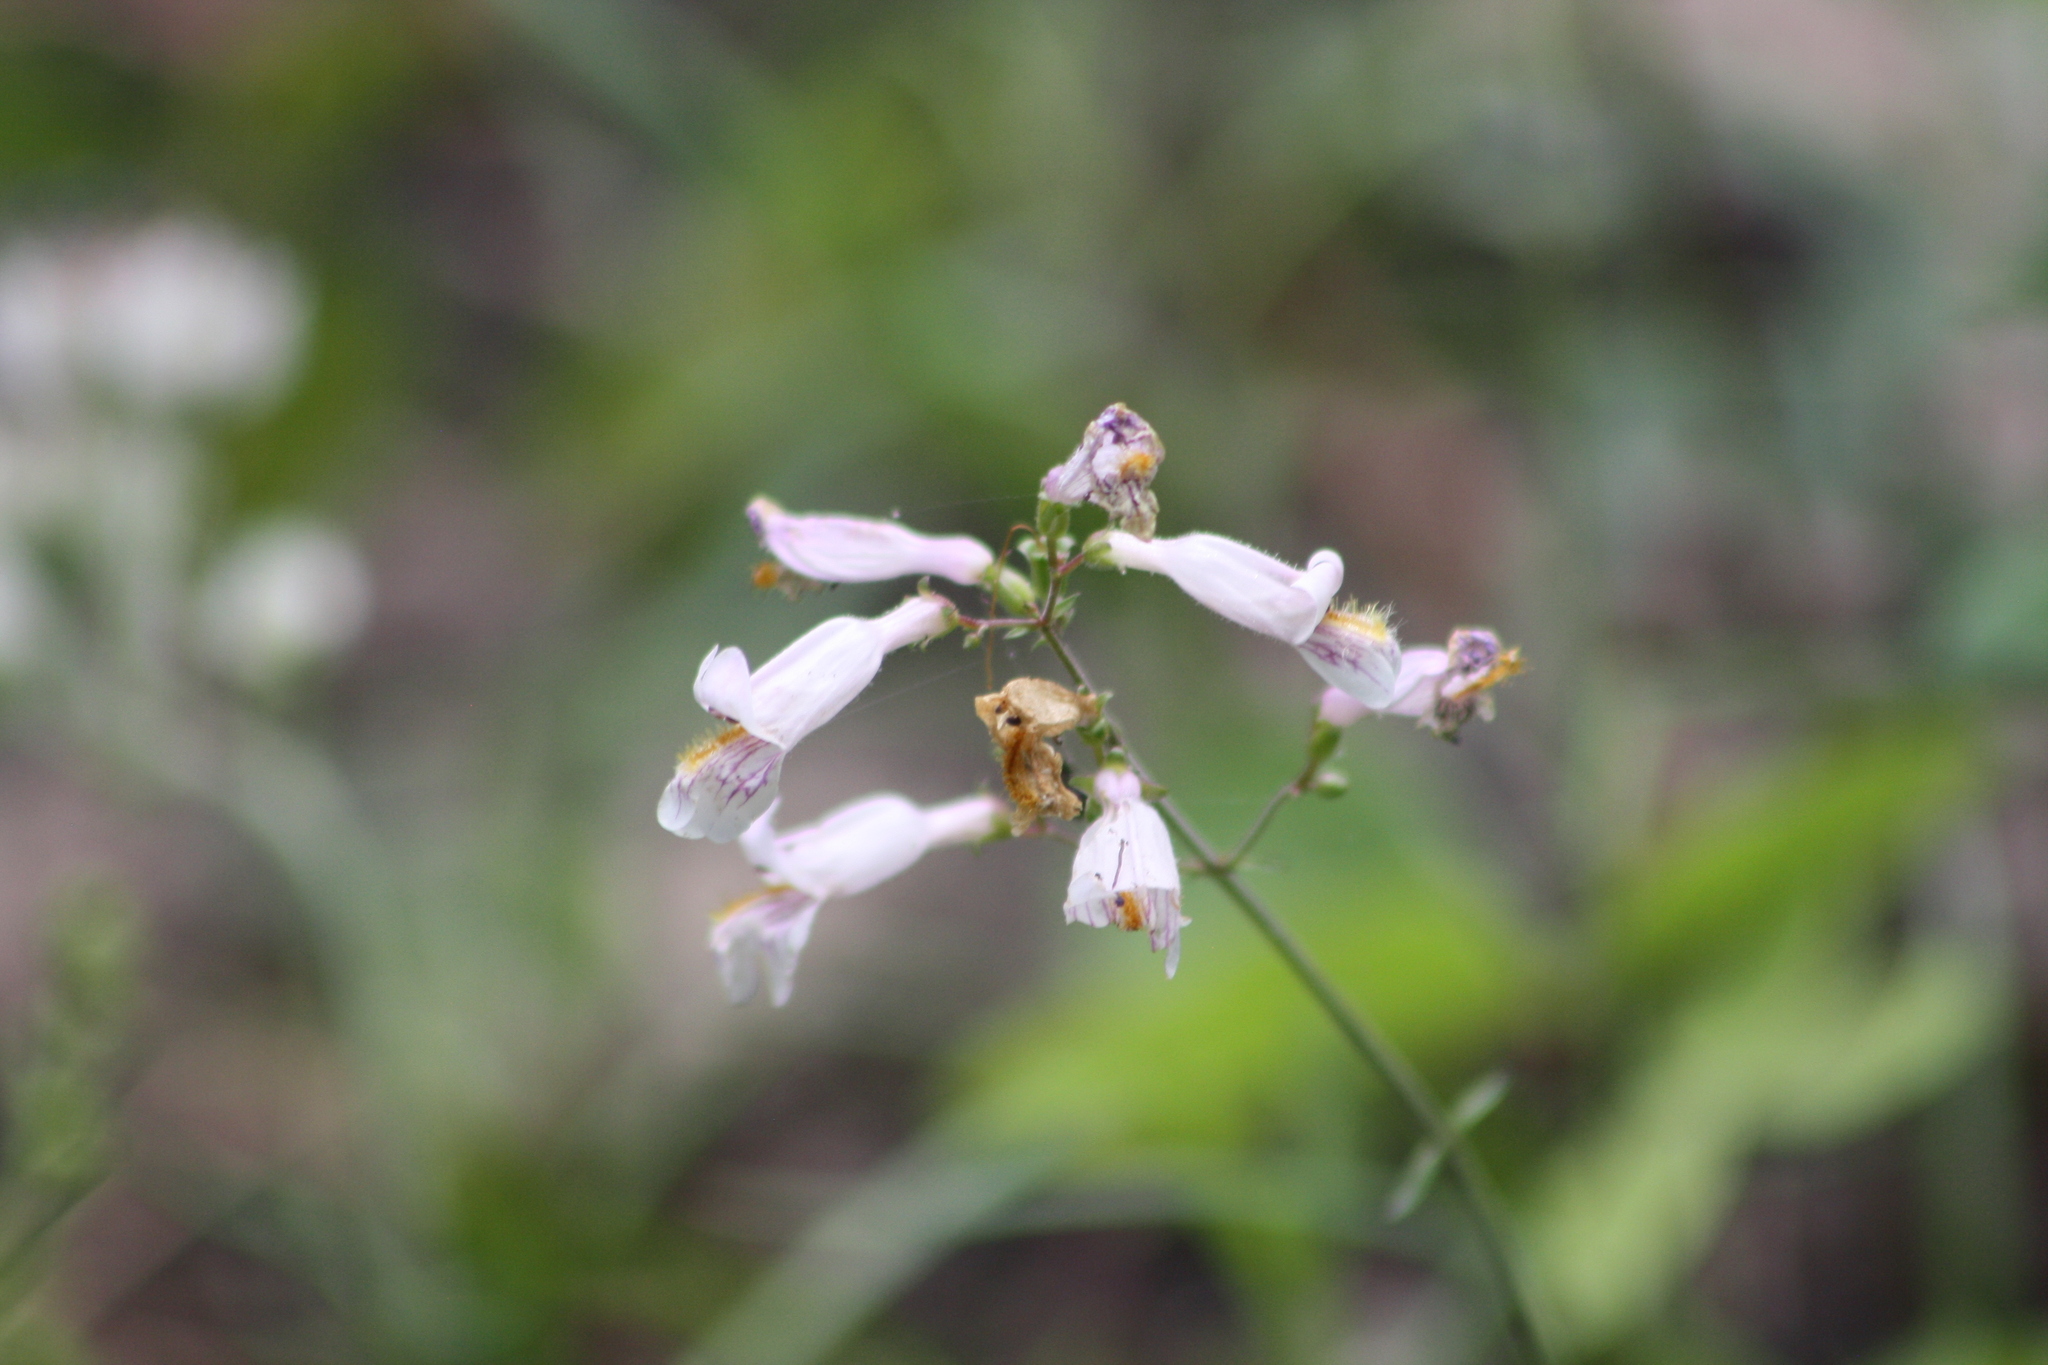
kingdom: Plantae
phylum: Tracheophyta
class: Magnoliopsida
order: Lamiales
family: Plantaginaceae
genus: Penstemon
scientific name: Penstemon laxiflorus
